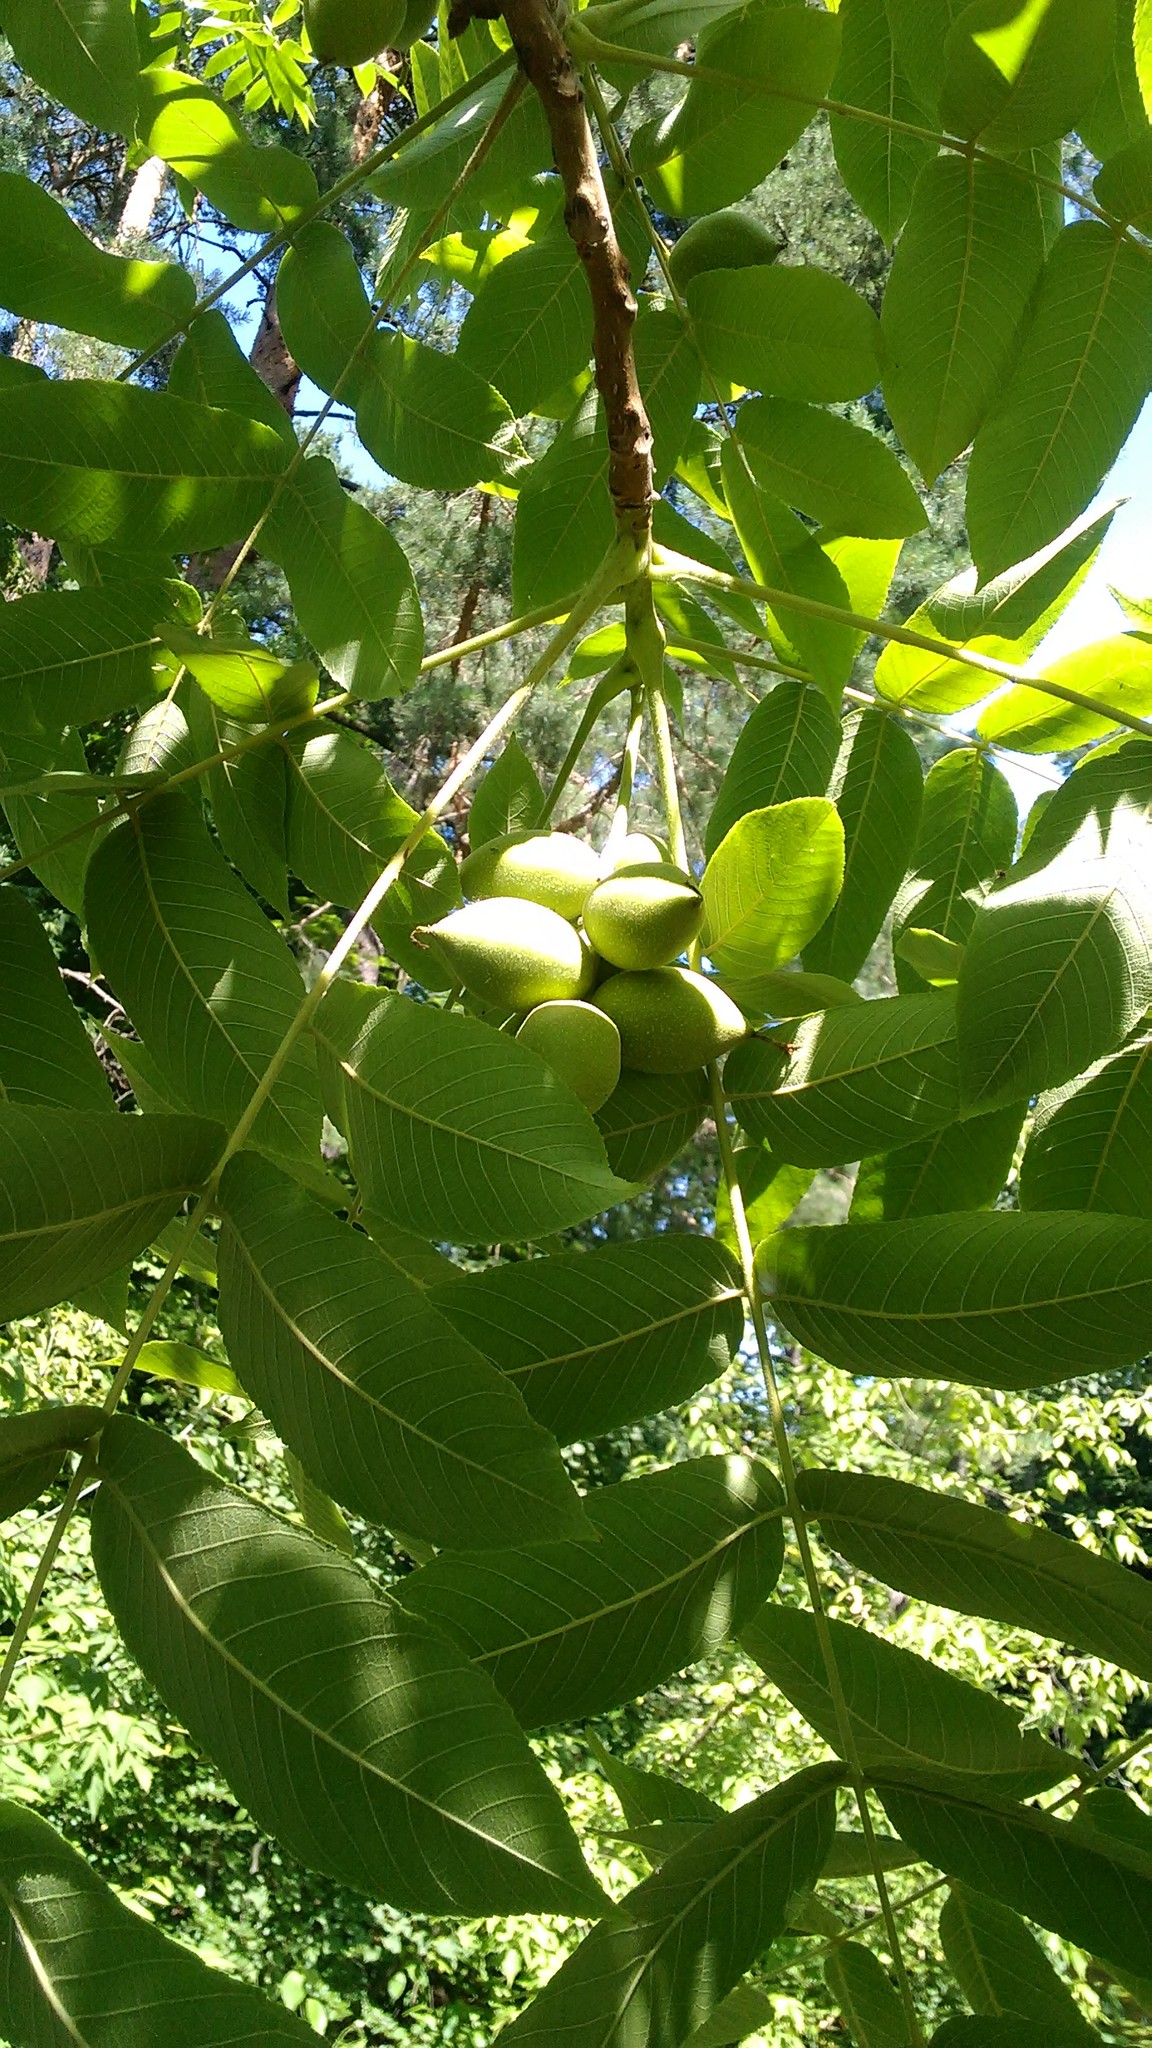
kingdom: Plantae
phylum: Tracheophyta
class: Magnoliopsida
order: Fagales
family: Juglandaceae
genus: Juglans
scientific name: Juglans mandshurica
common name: Manchurian walnut
